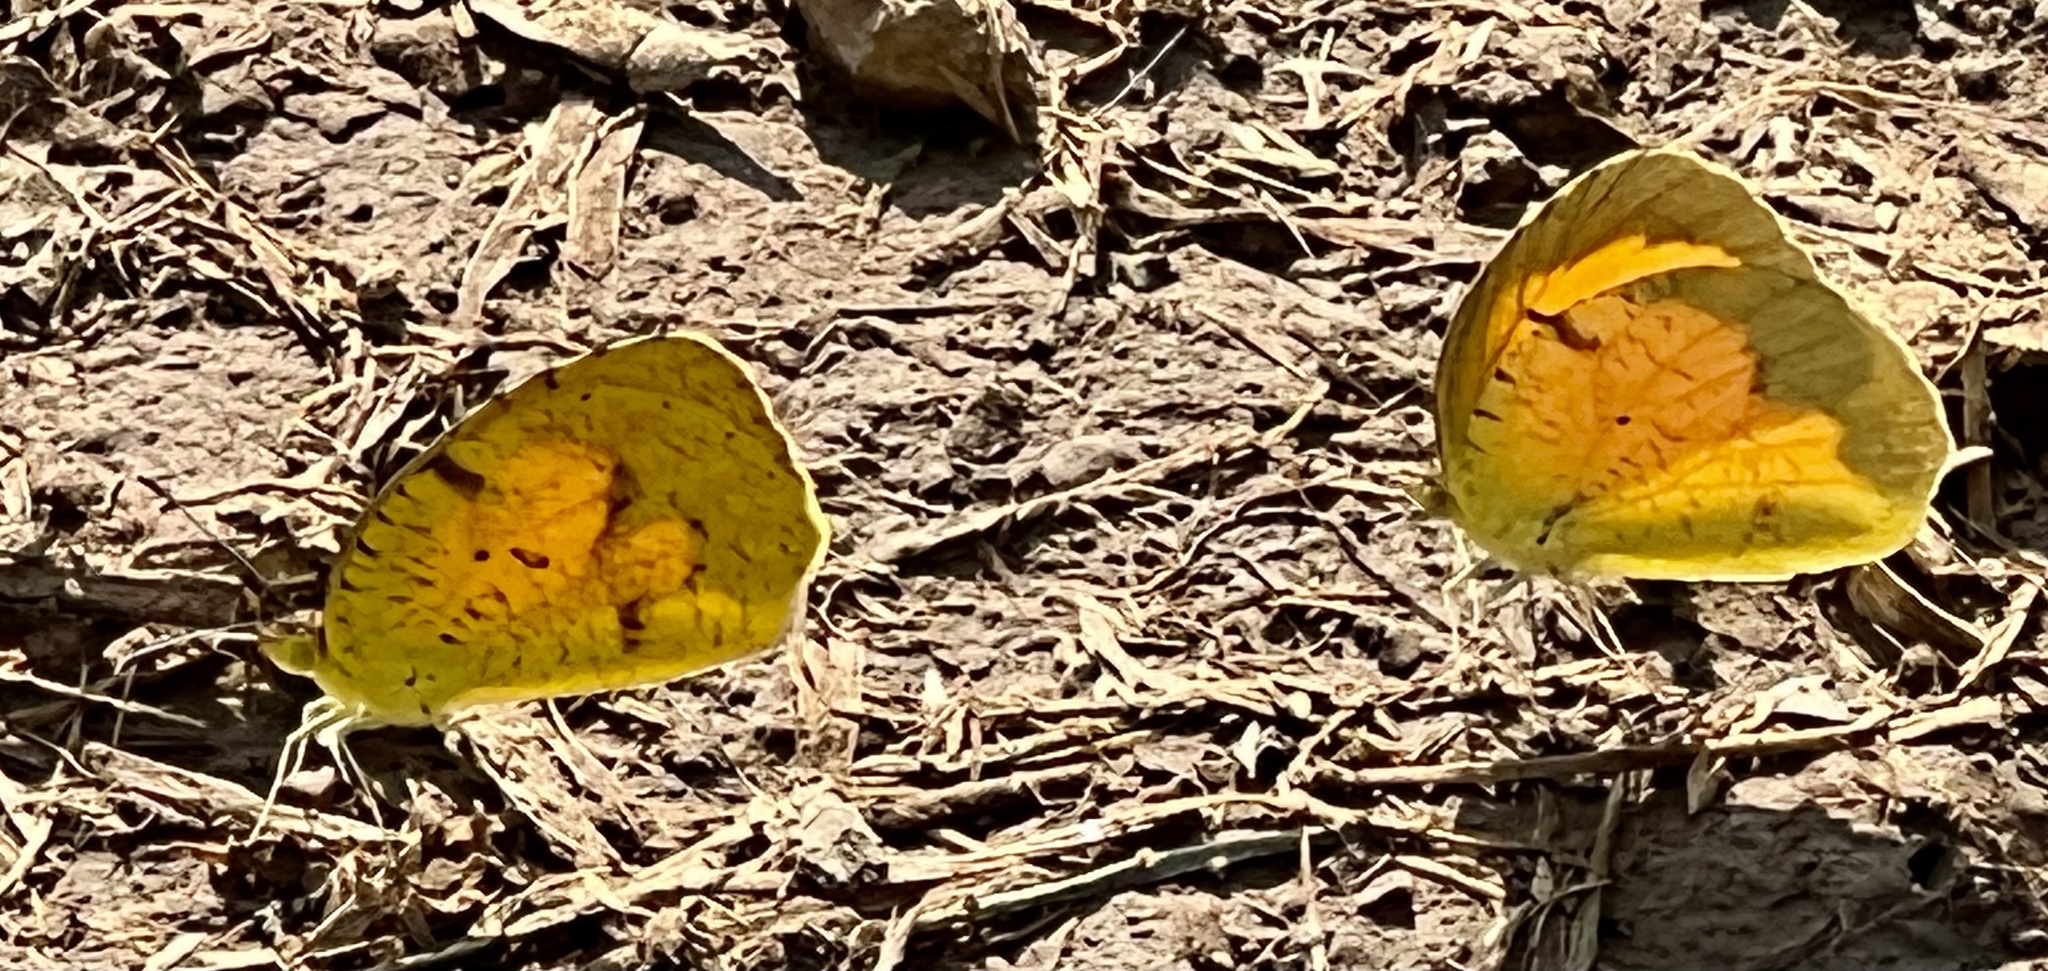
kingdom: Animalia
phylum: Arthropoda
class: Insecta
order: Lepidoptera
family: Pieridae
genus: Abaeis
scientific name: Abaeis nicippe
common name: Sleepy orange
